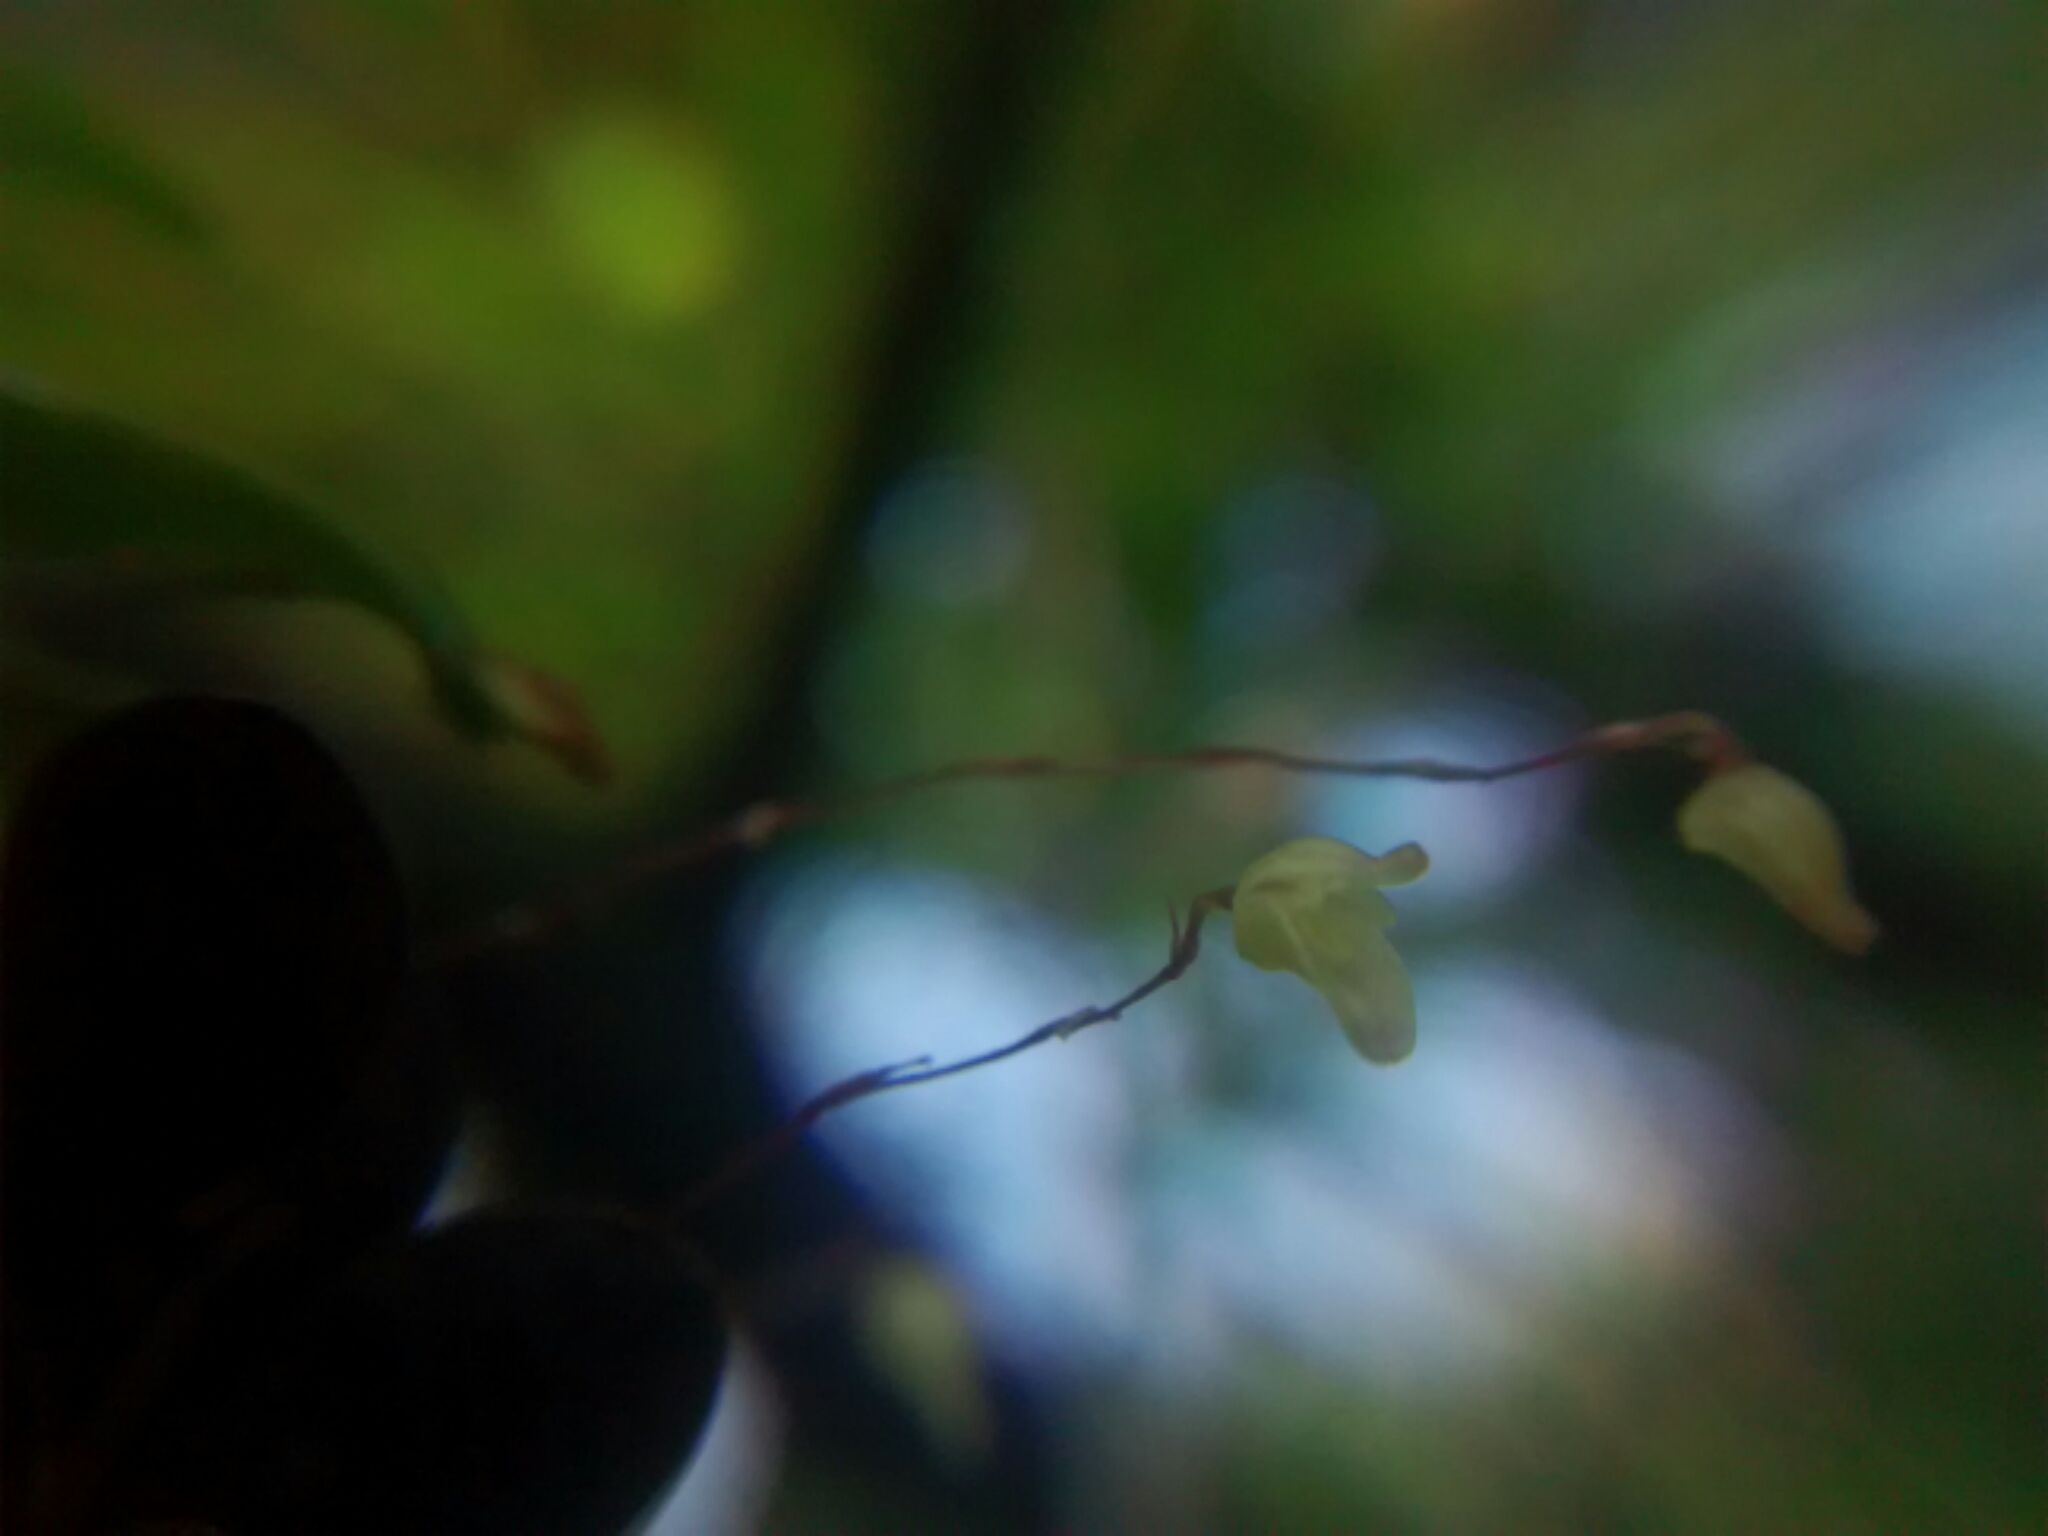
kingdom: Plantae
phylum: Tracheophyta
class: Liliopsida
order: Asparagales
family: Orchidaceae
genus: Specklinia
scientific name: Specklinia digitale
